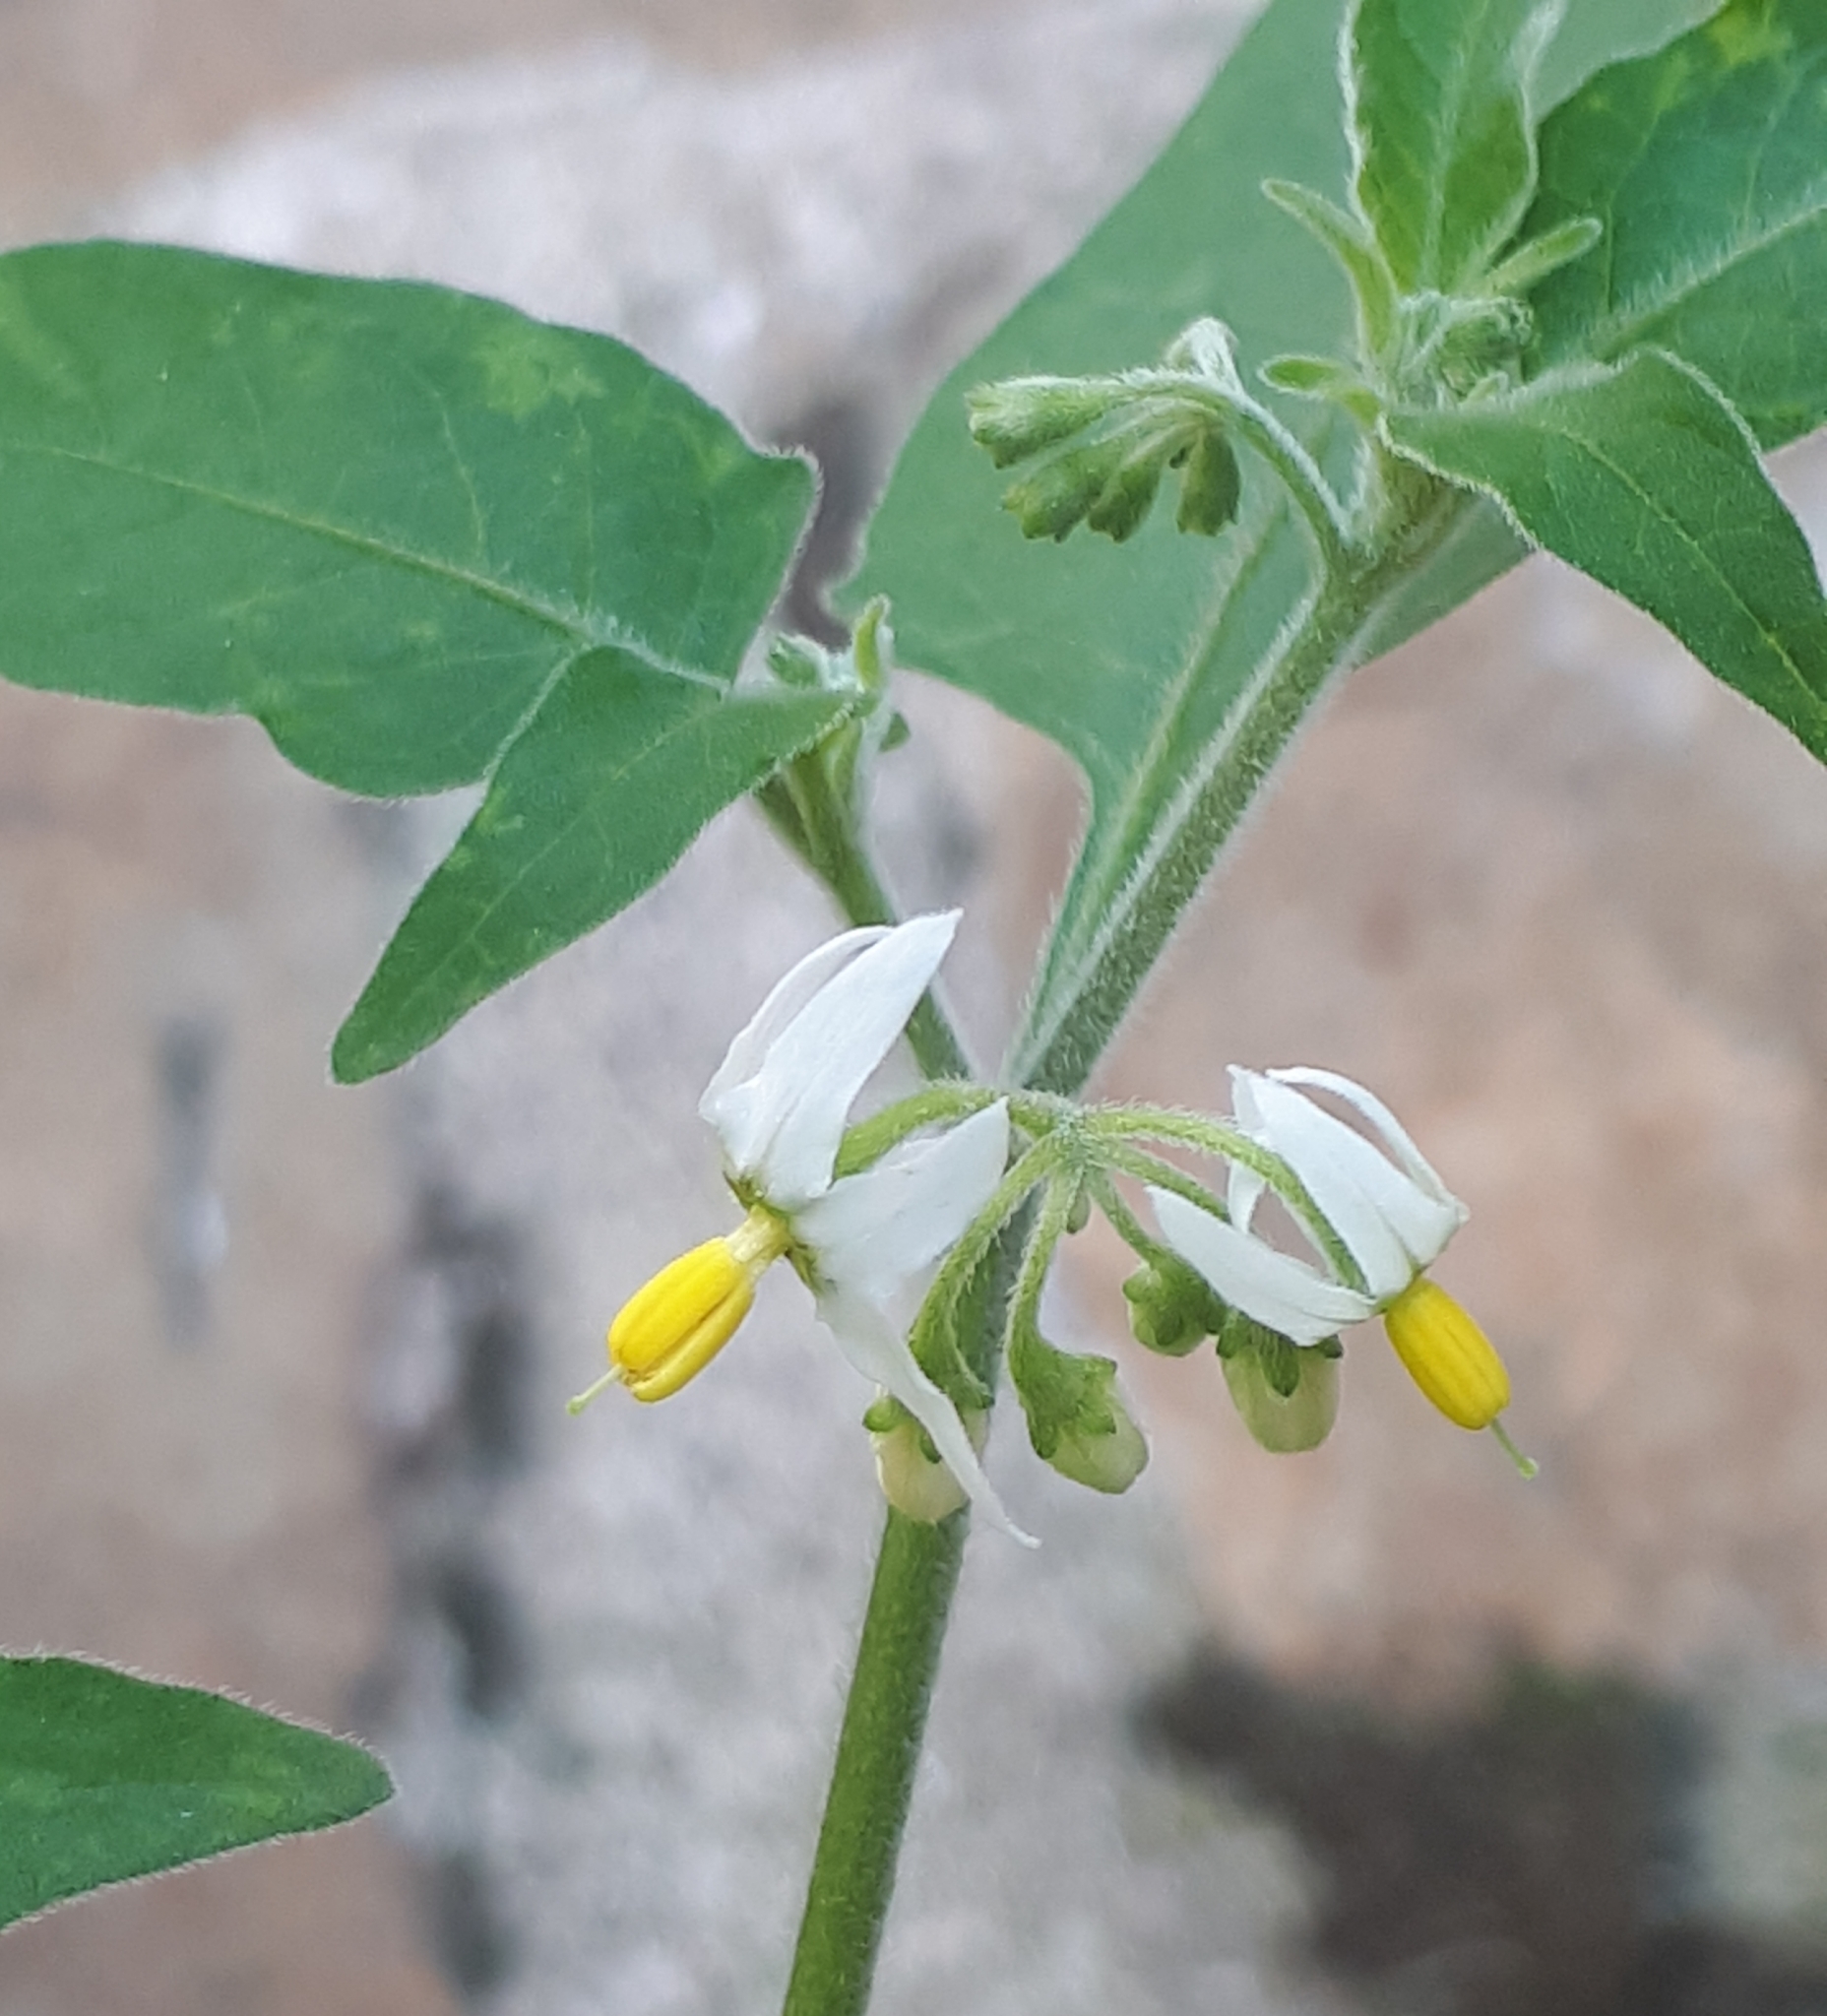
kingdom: Plantae
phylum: Tracheophyta
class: Magnoliopsida
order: Solanales
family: Solanaceae
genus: Solanum
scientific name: Solanum chenopodioides
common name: Tall nightshade
